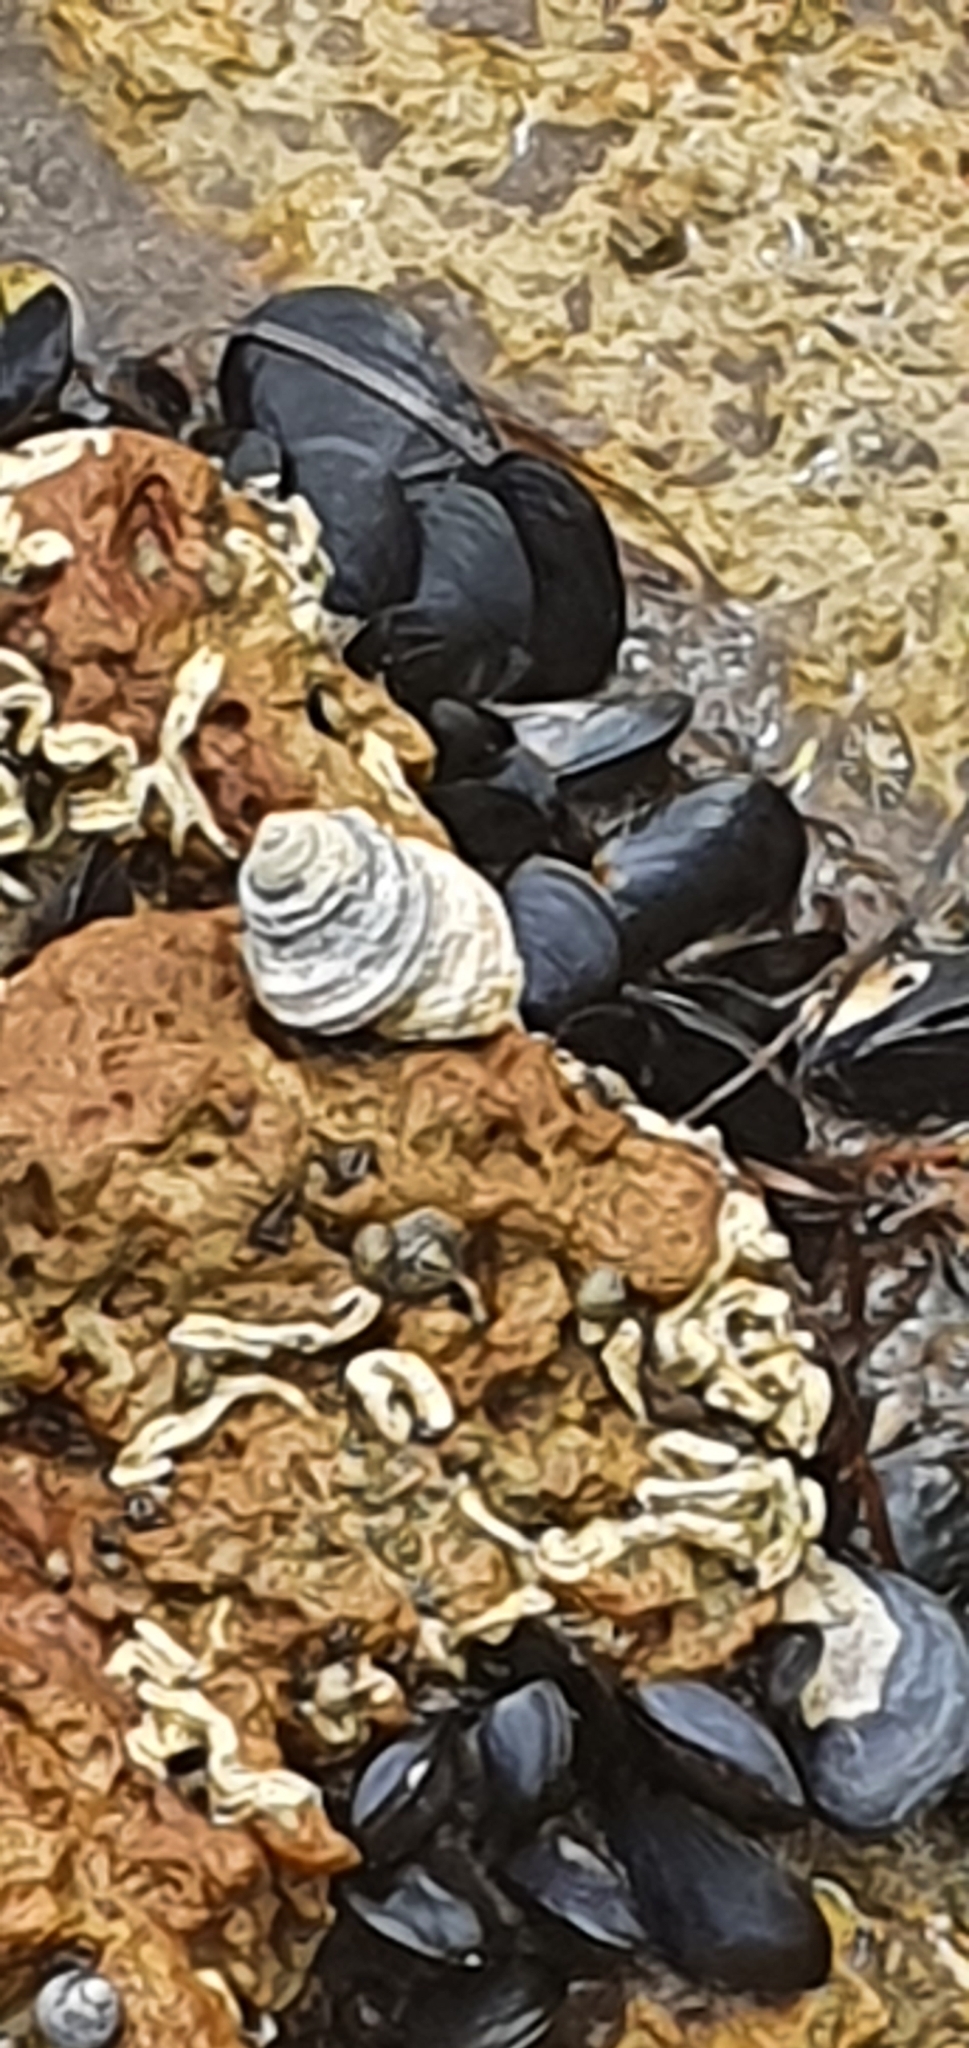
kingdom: Animalia
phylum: Mollusca
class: Gastropoda
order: Trochida
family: Trochidae
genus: Austrocochlea
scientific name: Austrocochlea constricta
